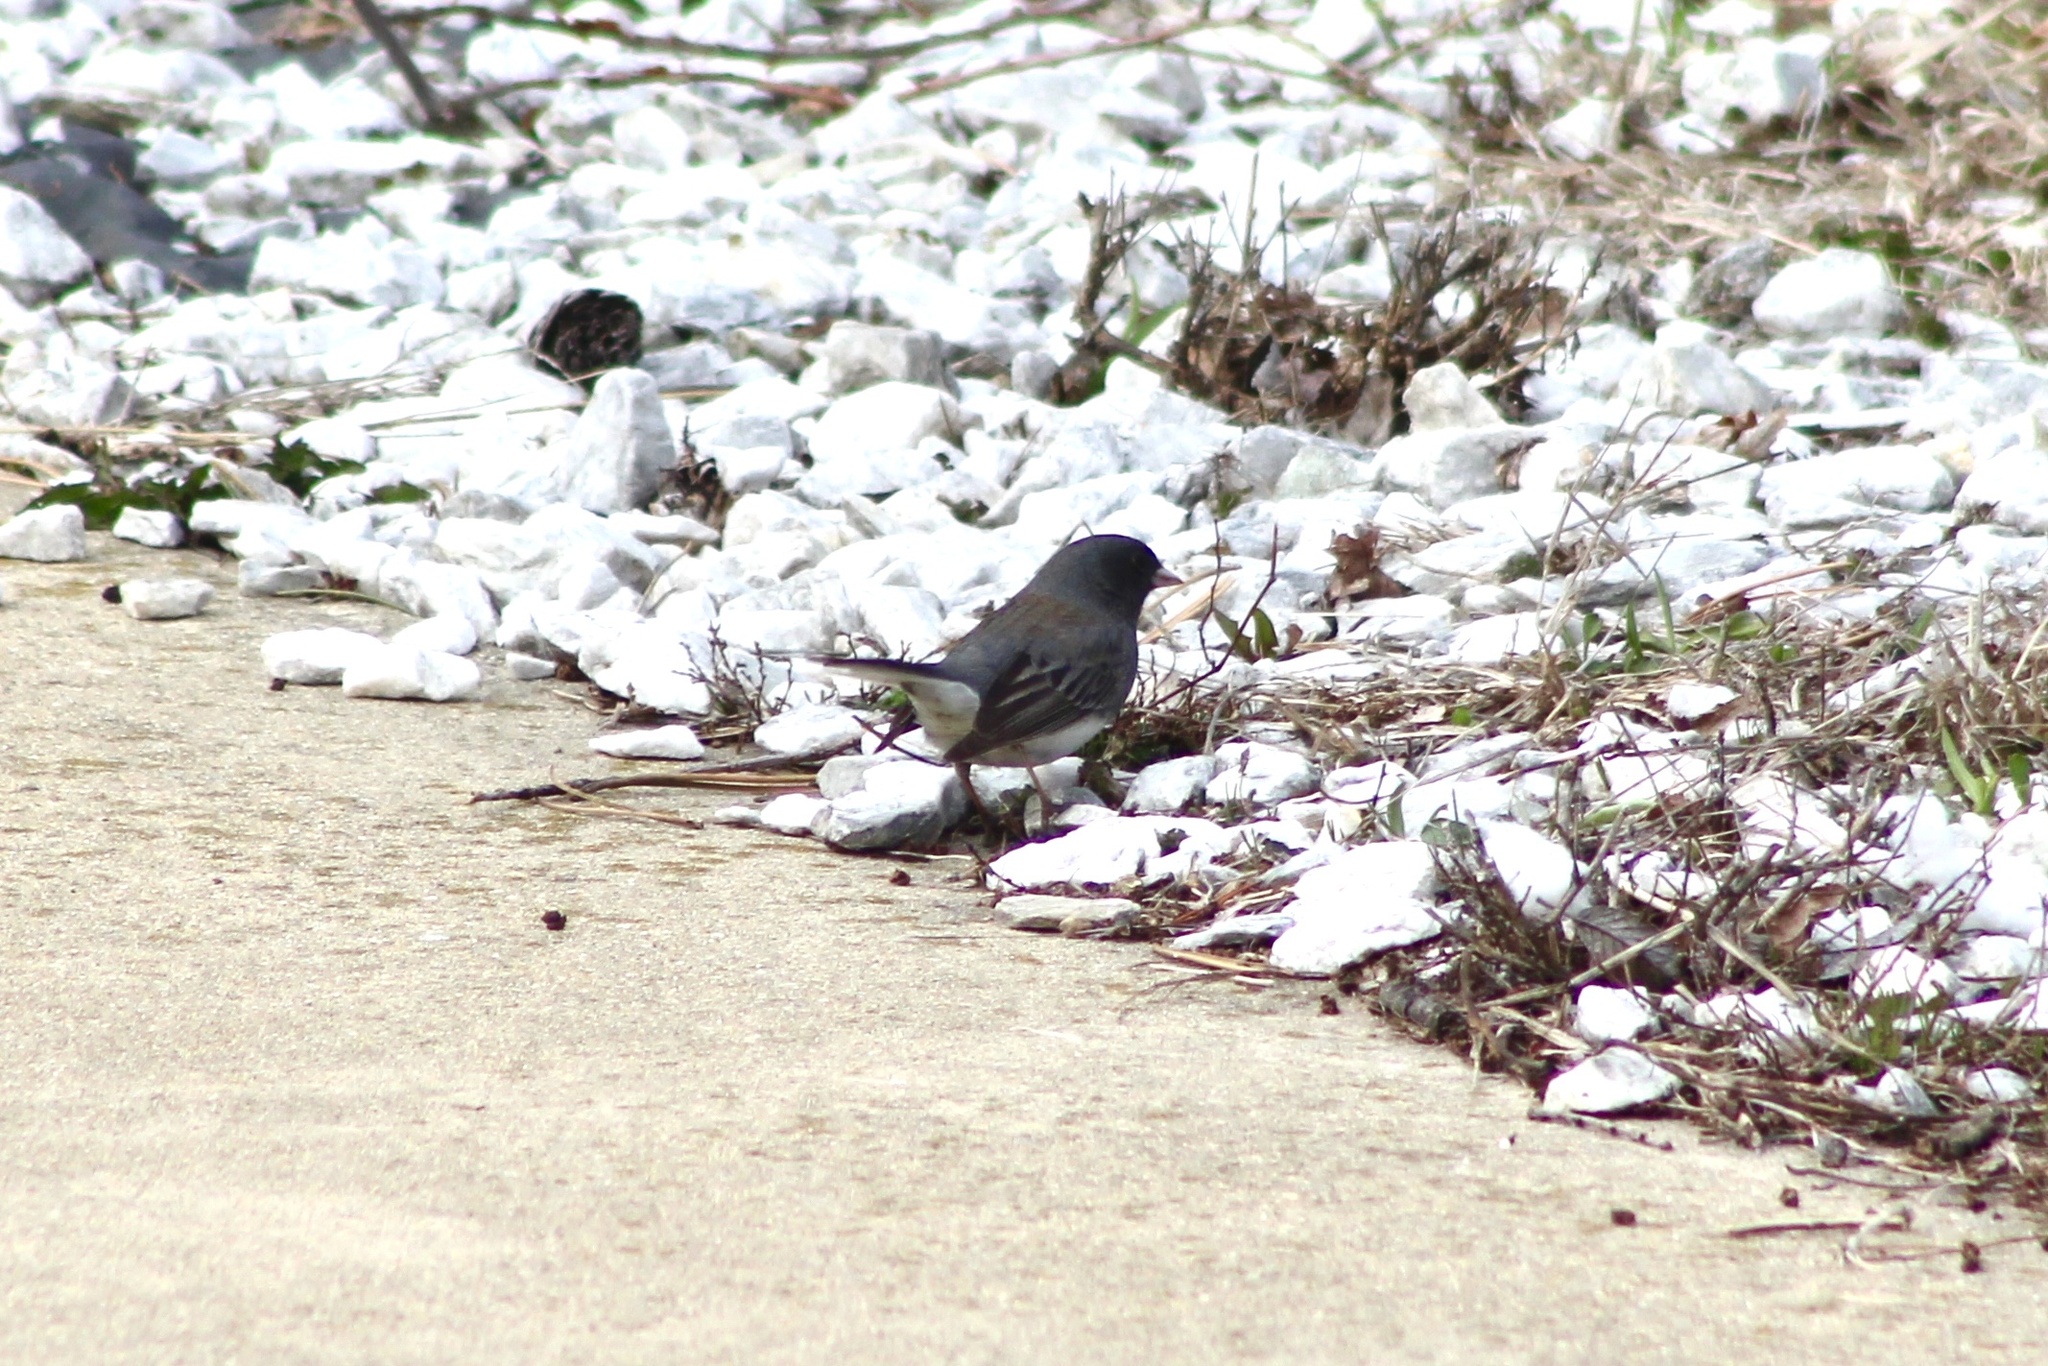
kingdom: Animalia
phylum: Chordata
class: Aves
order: Passeriformes
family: Passerellidae
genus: Junco
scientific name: Junco hyemalis
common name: Dark-eyed junco
